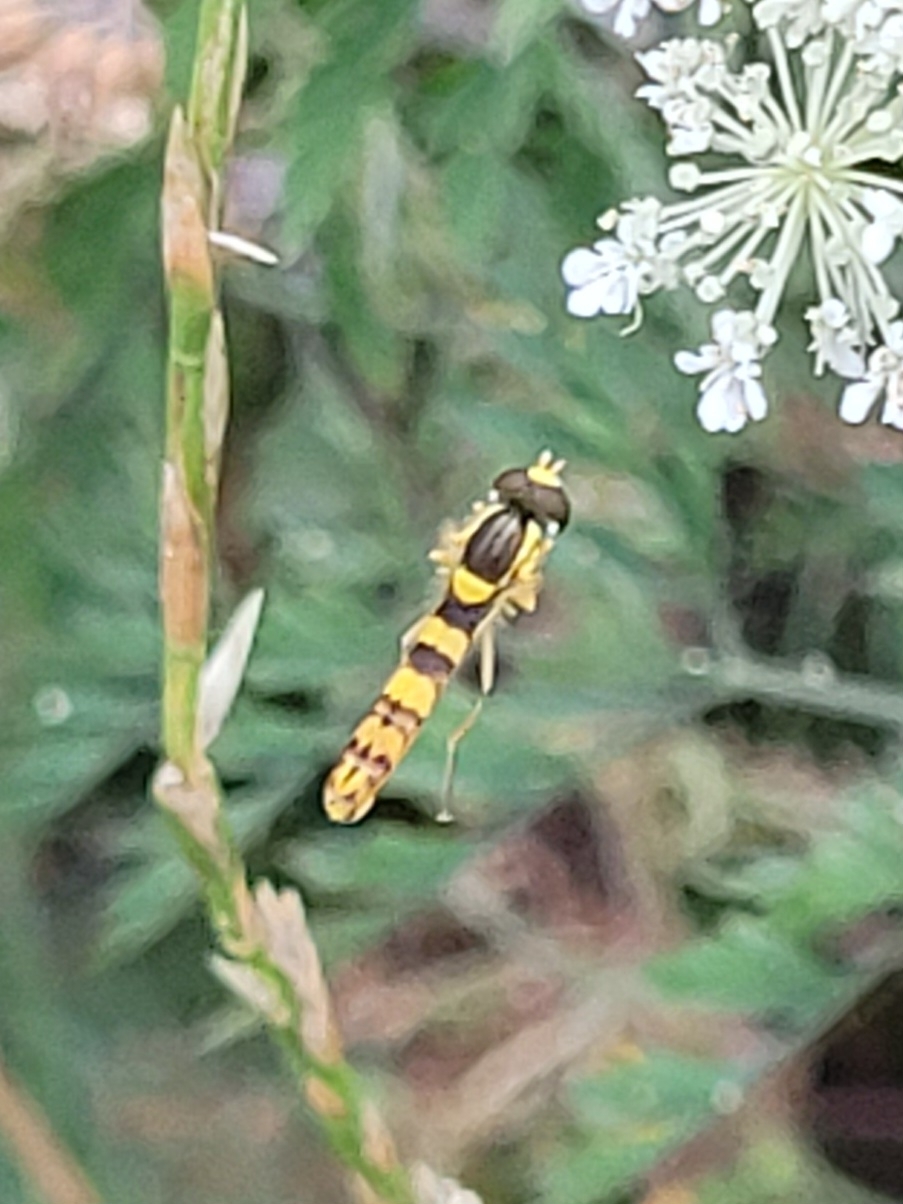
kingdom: Animalia
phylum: Arthropoda
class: Insecta
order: Diptera
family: Syrphidae
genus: Sphaerophoria
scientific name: Sphaerophoria scripta
